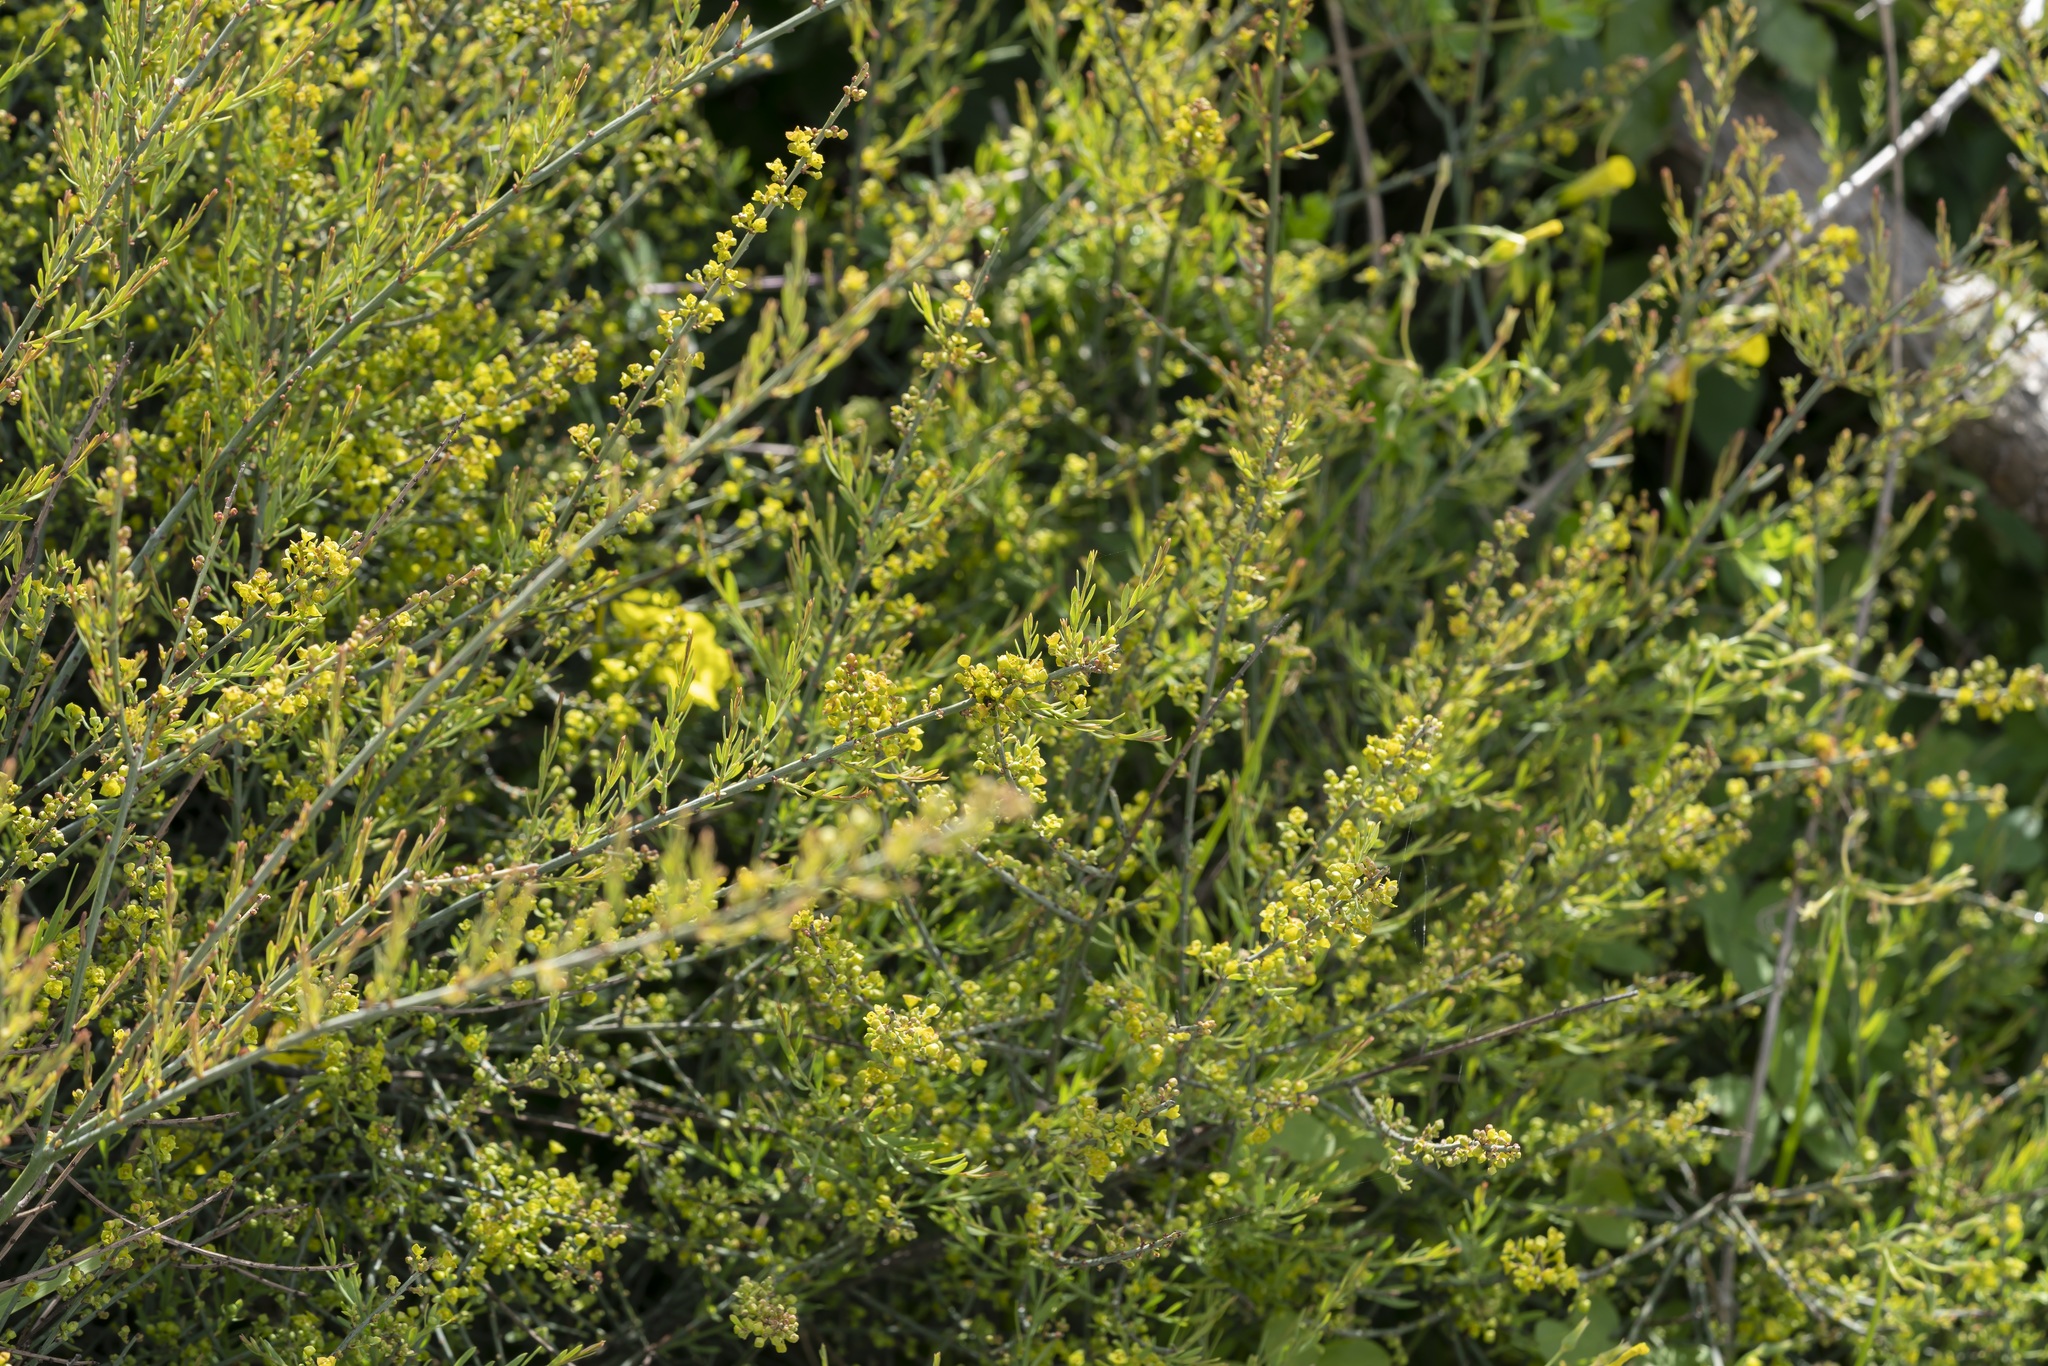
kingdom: Plantae
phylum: Tracheophyta
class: Magnoliopsida
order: Santalales
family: Santalaceae
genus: Osyris
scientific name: Osyris alba
